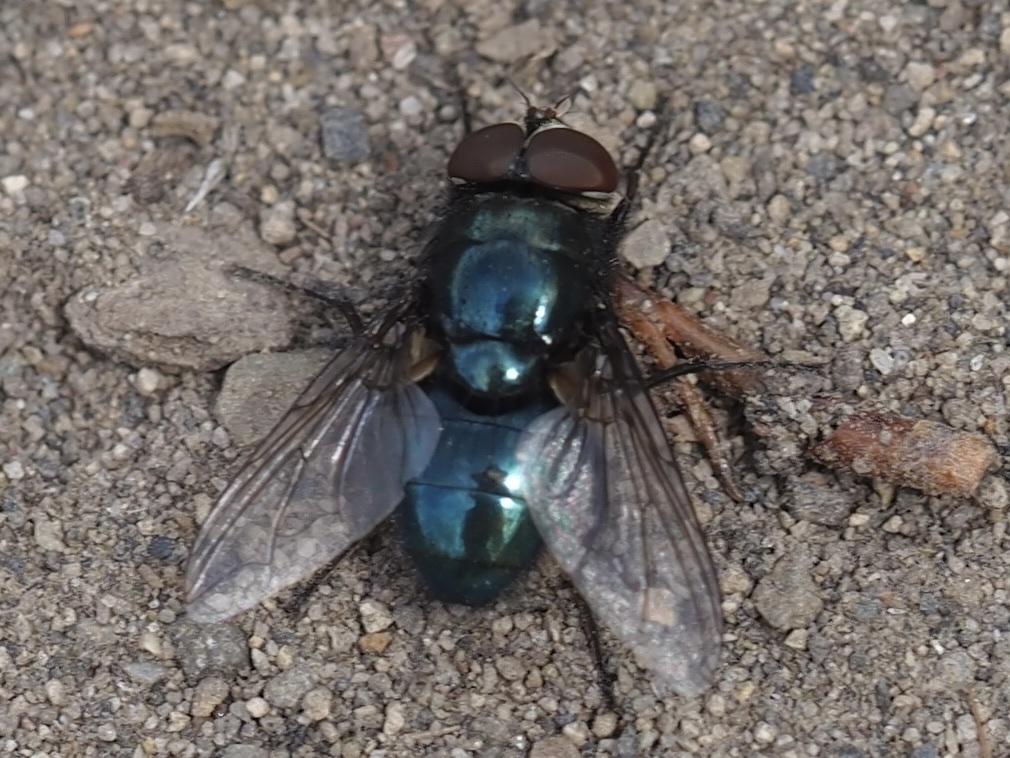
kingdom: Animalia
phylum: Arthropoda
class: Insecta
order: Diptera
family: Calliphoridae
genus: Phormia
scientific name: Phormia regina
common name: Black blow fly
